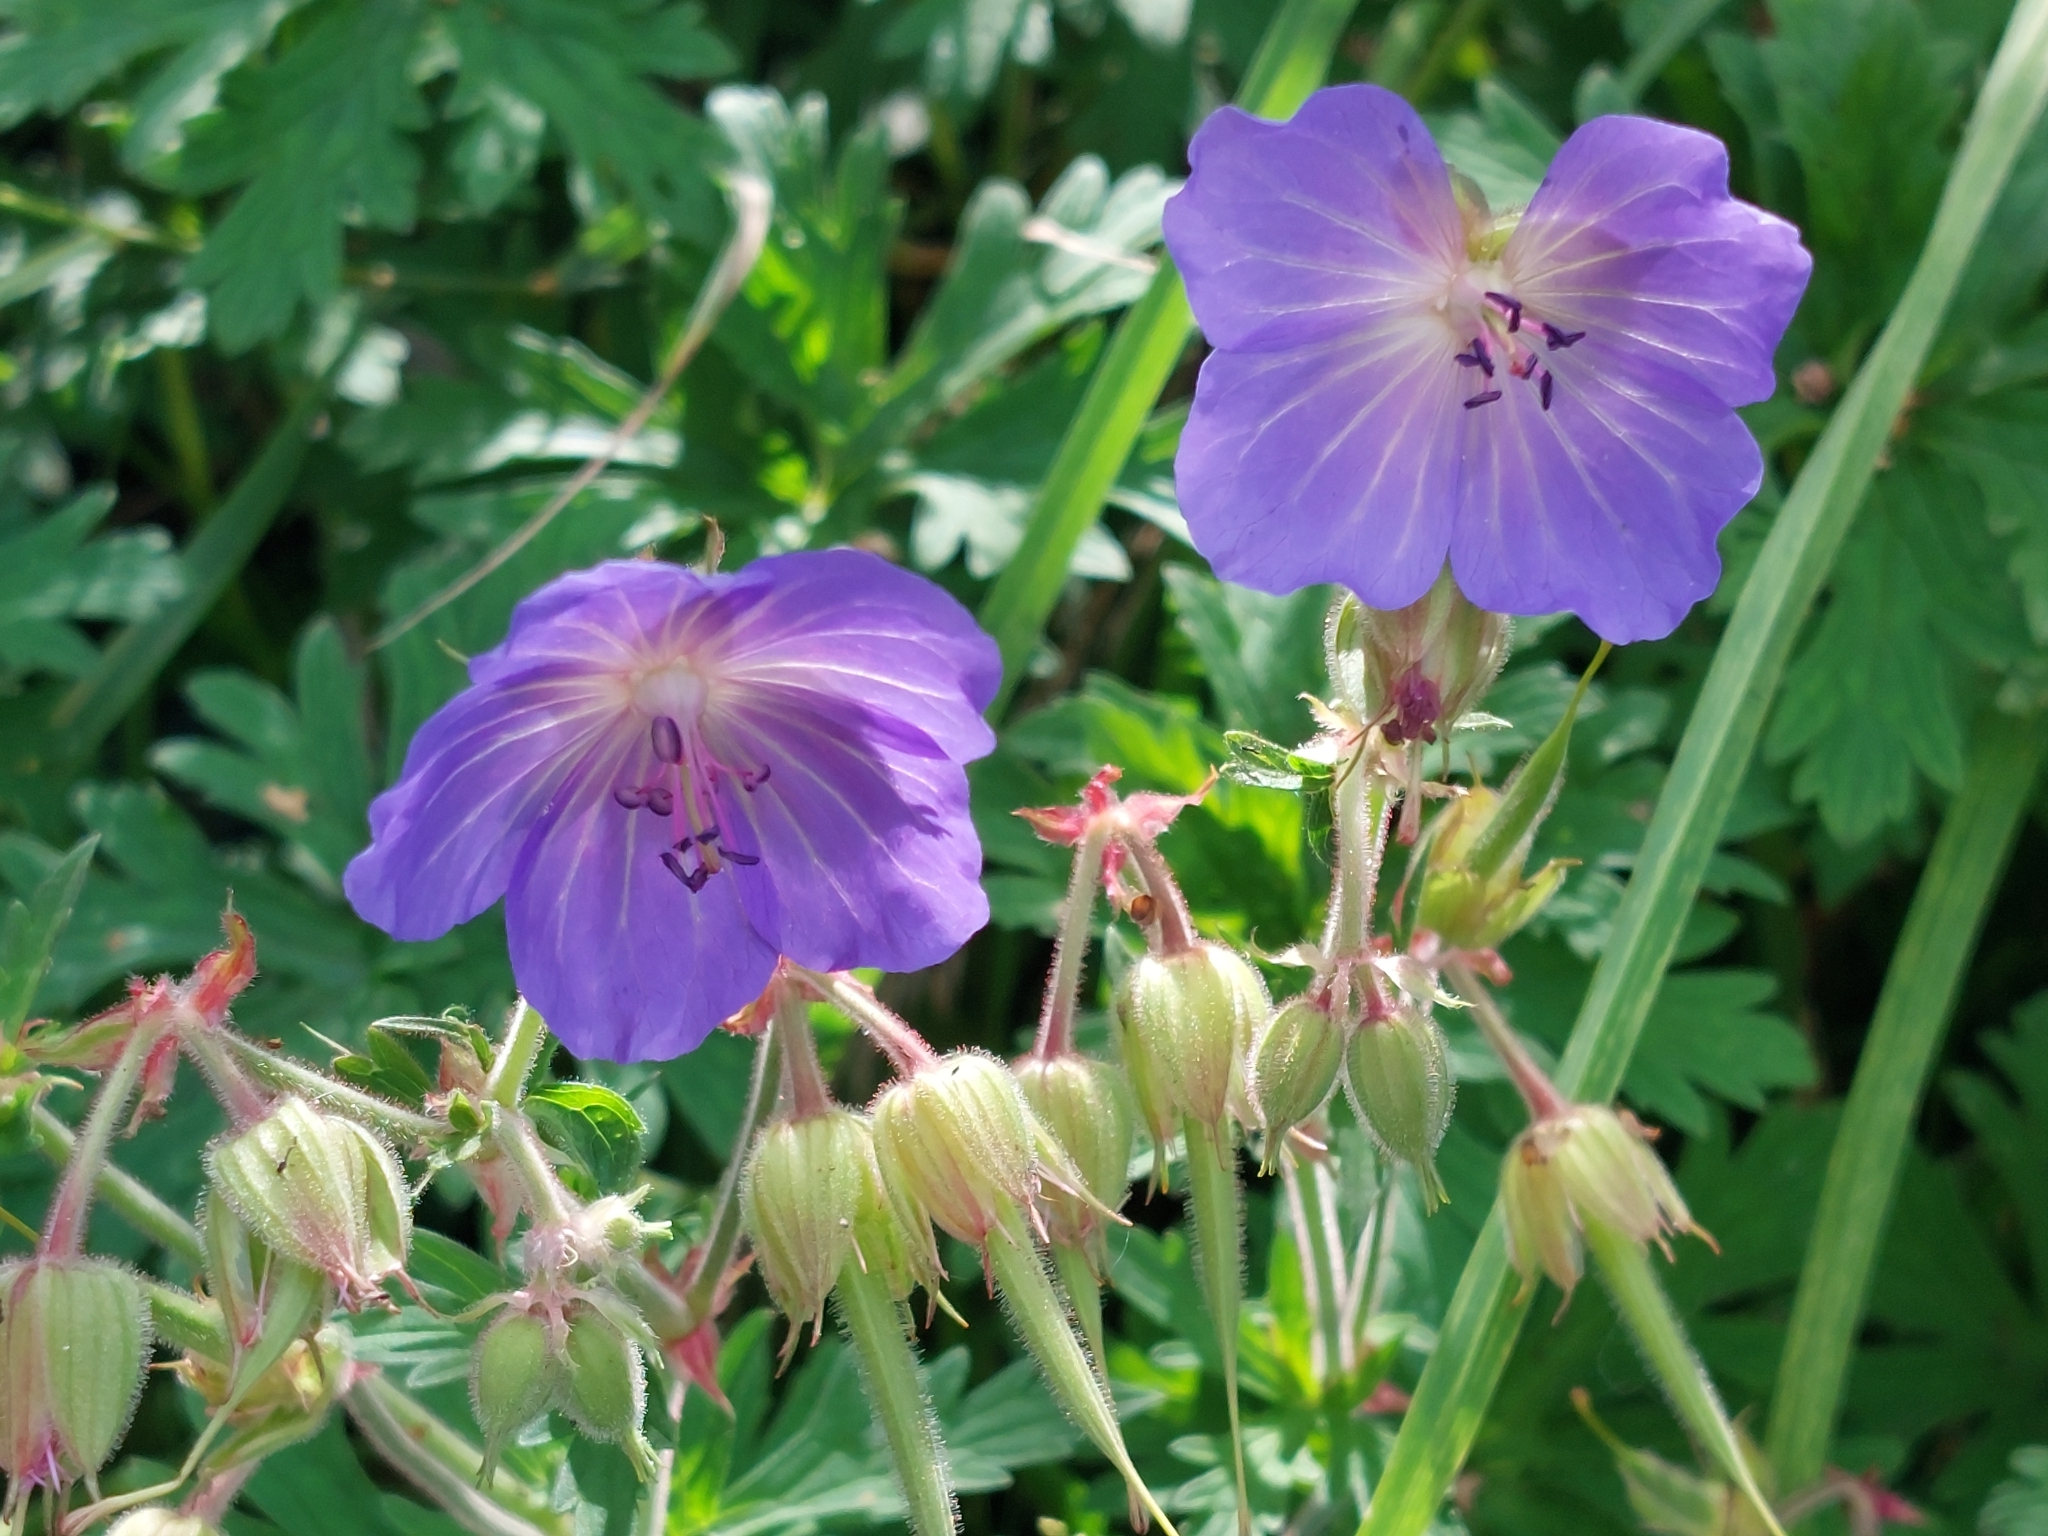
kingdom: Plantae
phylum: Tracheophyta
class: Magnoliopsida
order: Geraniales
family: Geraniaceae
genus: Geranium
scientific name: Geranium pratense
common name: Meadow crane's-bill
